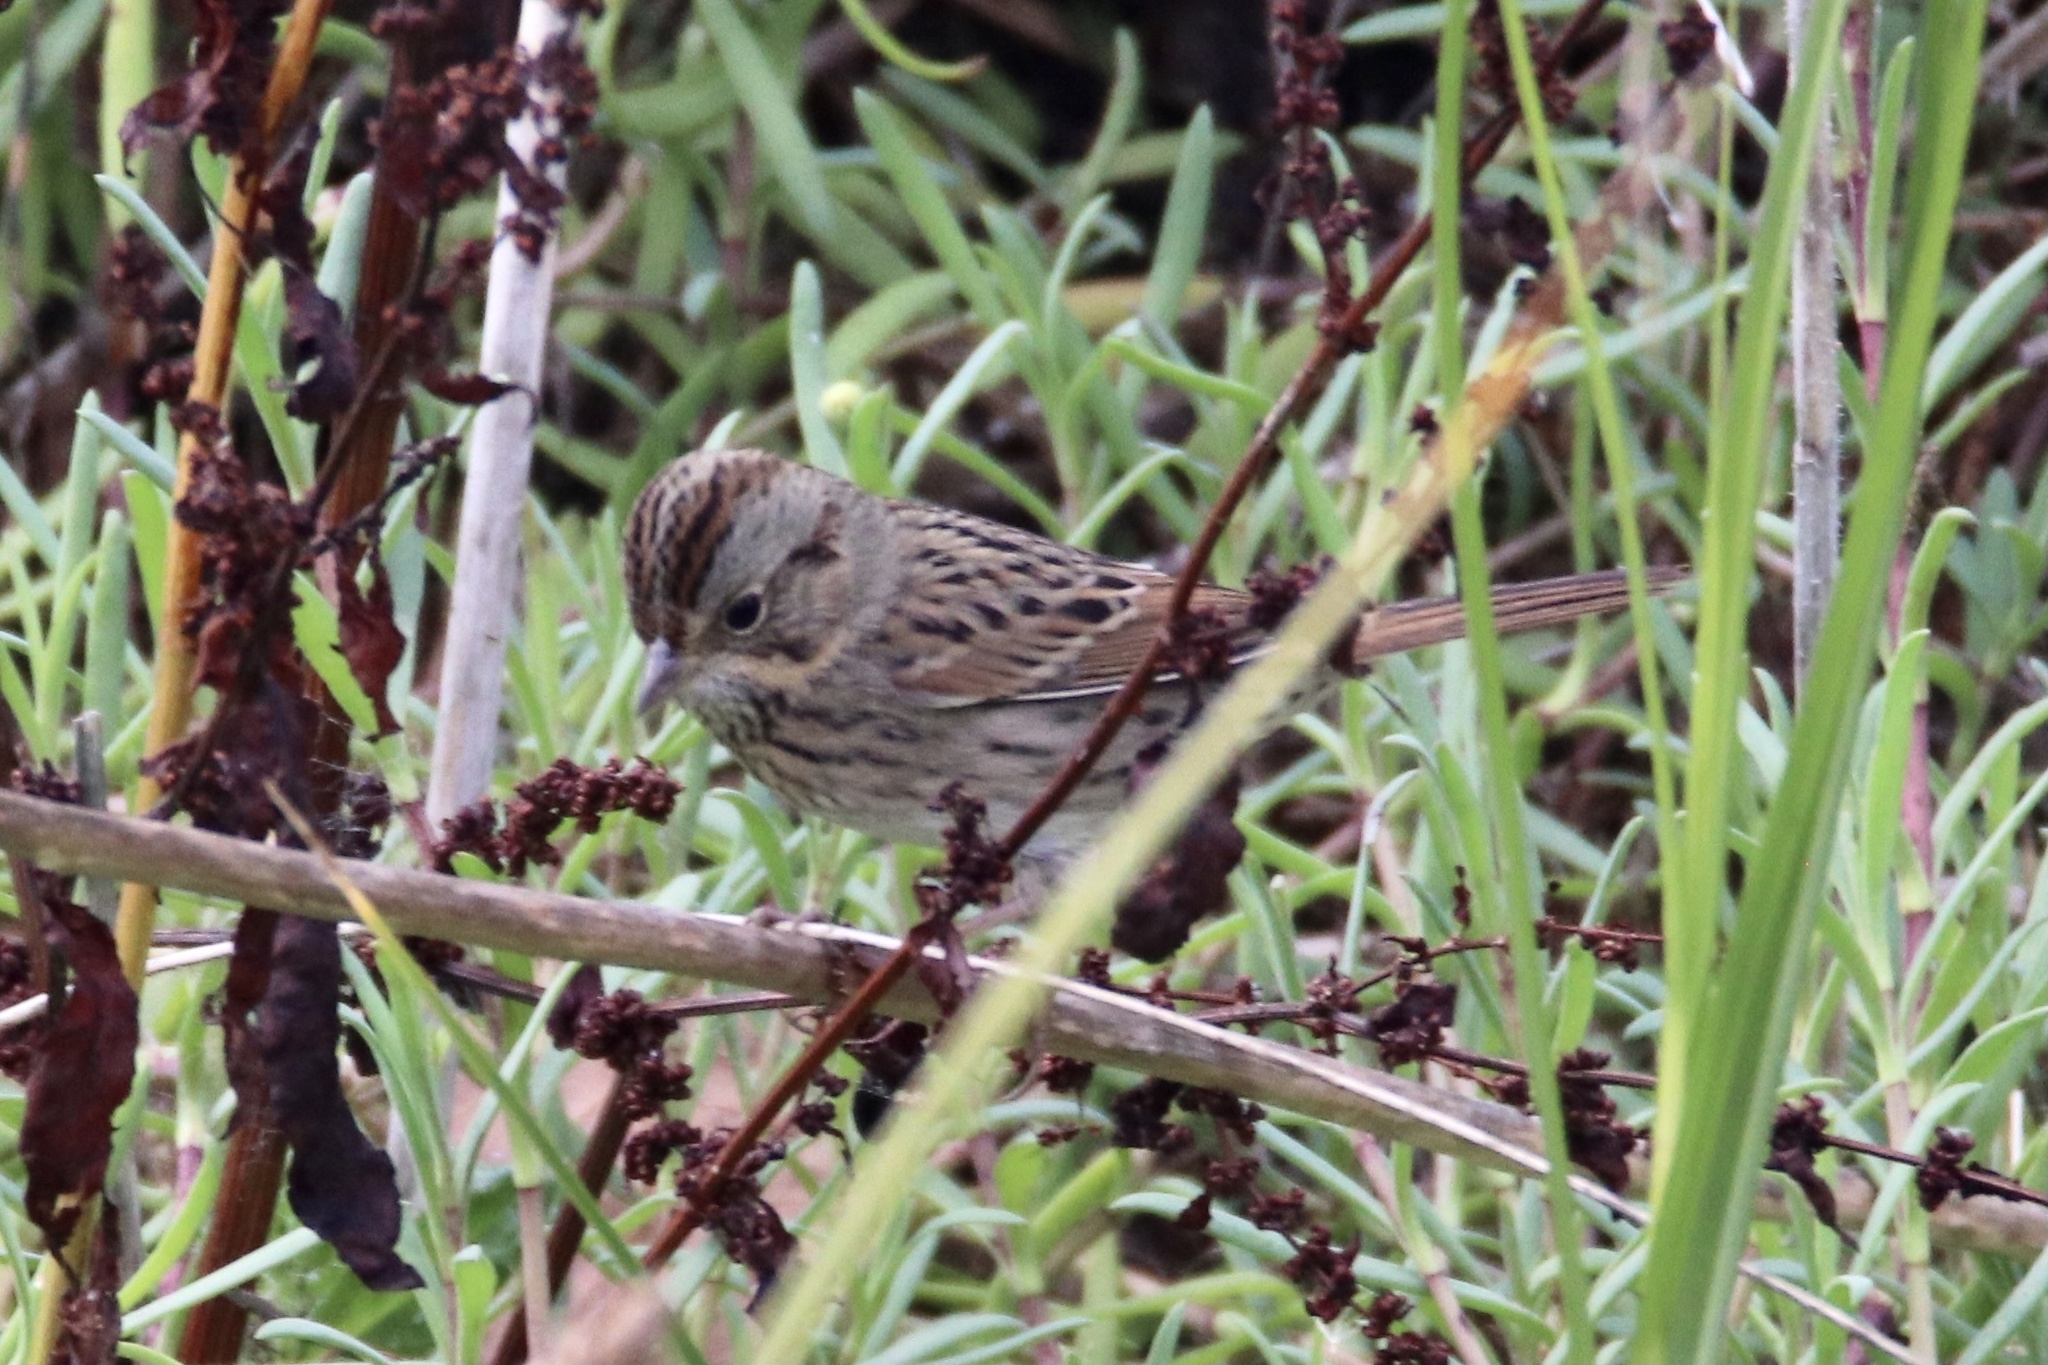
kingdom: Animalia
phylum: Chordata
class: Aves
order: Passeriformes
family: Passerellidae
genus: Melospiza
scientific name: Melospiza lincolnii
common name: Lincoln's sparrow
